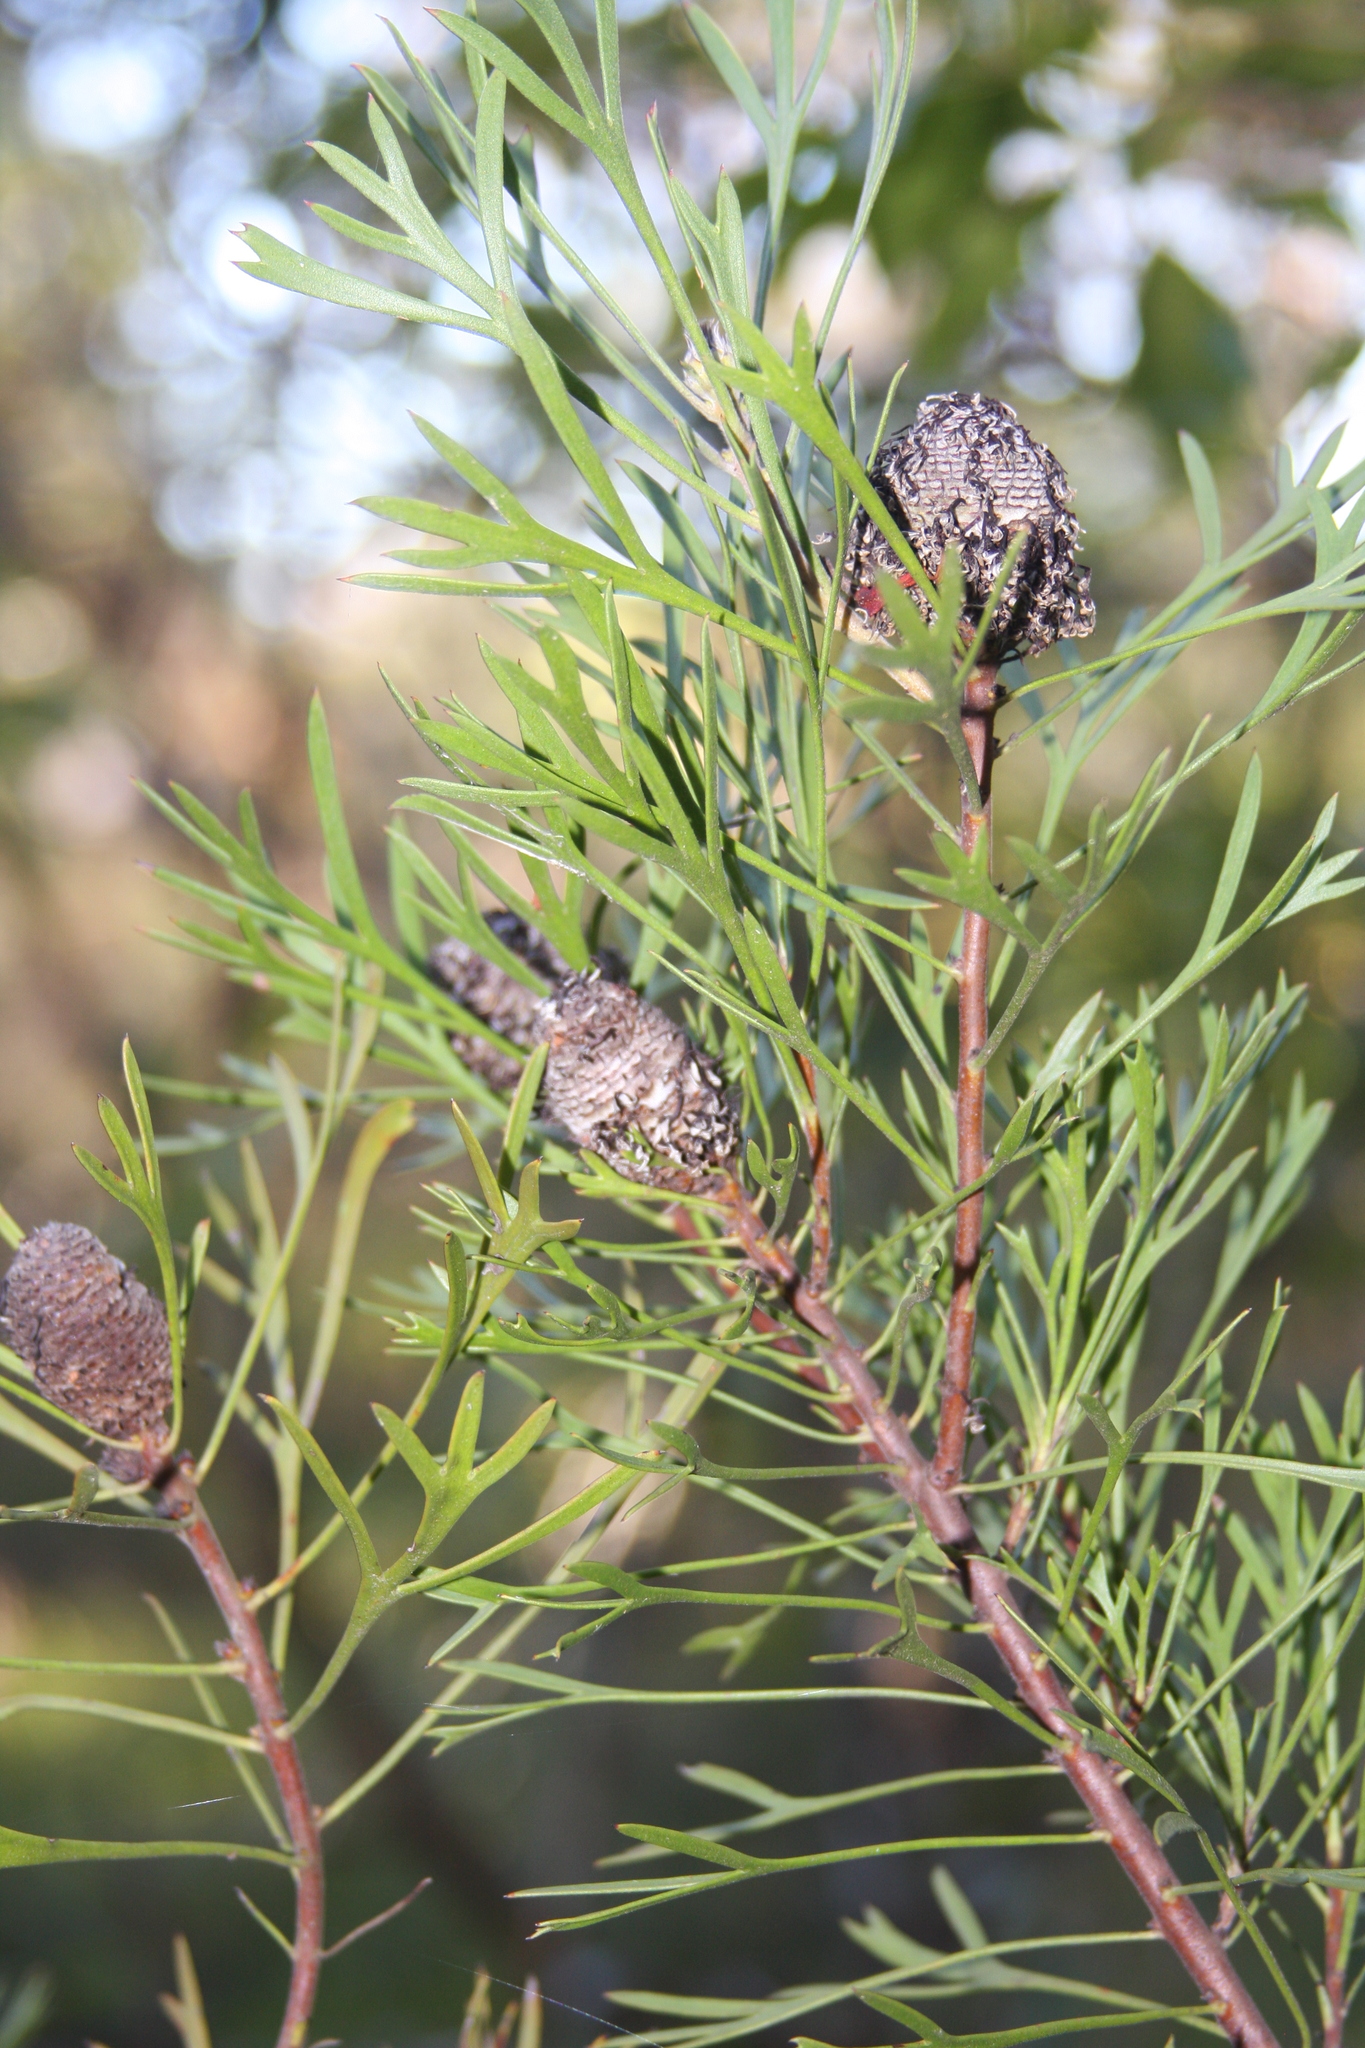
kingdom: Plantae
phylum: Tracheophyta
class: Magnoliopsida
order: Proteales
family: Proteaceae
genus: Isopogon
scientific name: Isopogon anemonifolius
